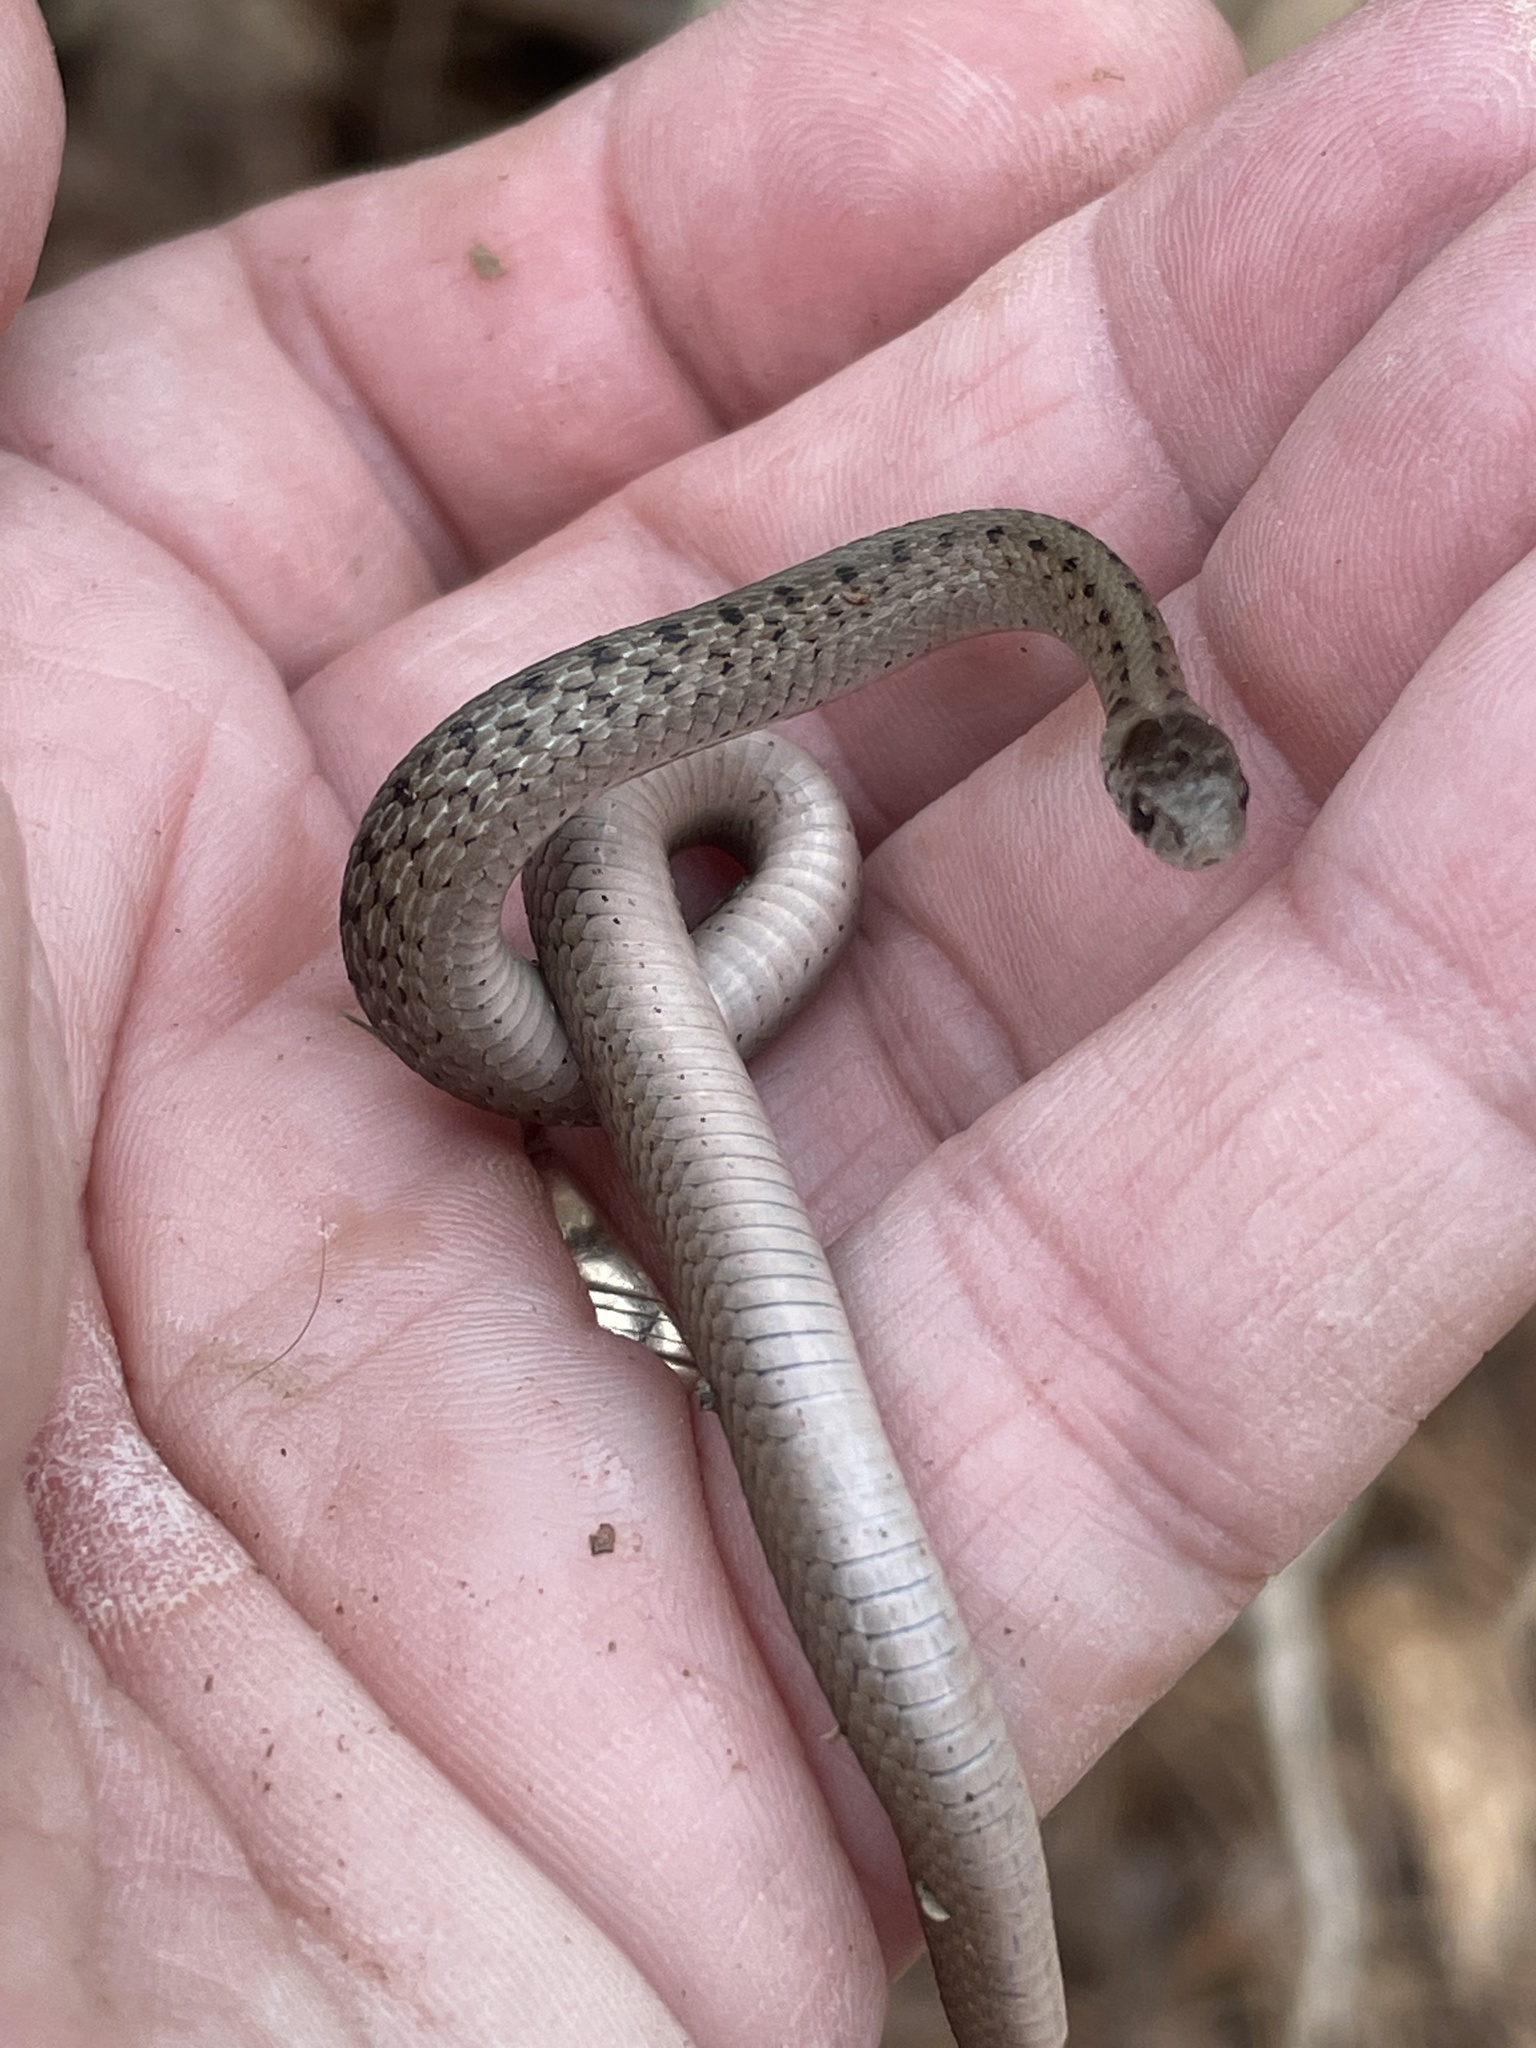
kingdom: Animalia
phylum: Chordata
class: Squamata
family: Colubridae
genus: Storeria
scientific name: Storeria dekayi
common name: (dekay’s) brown snake
